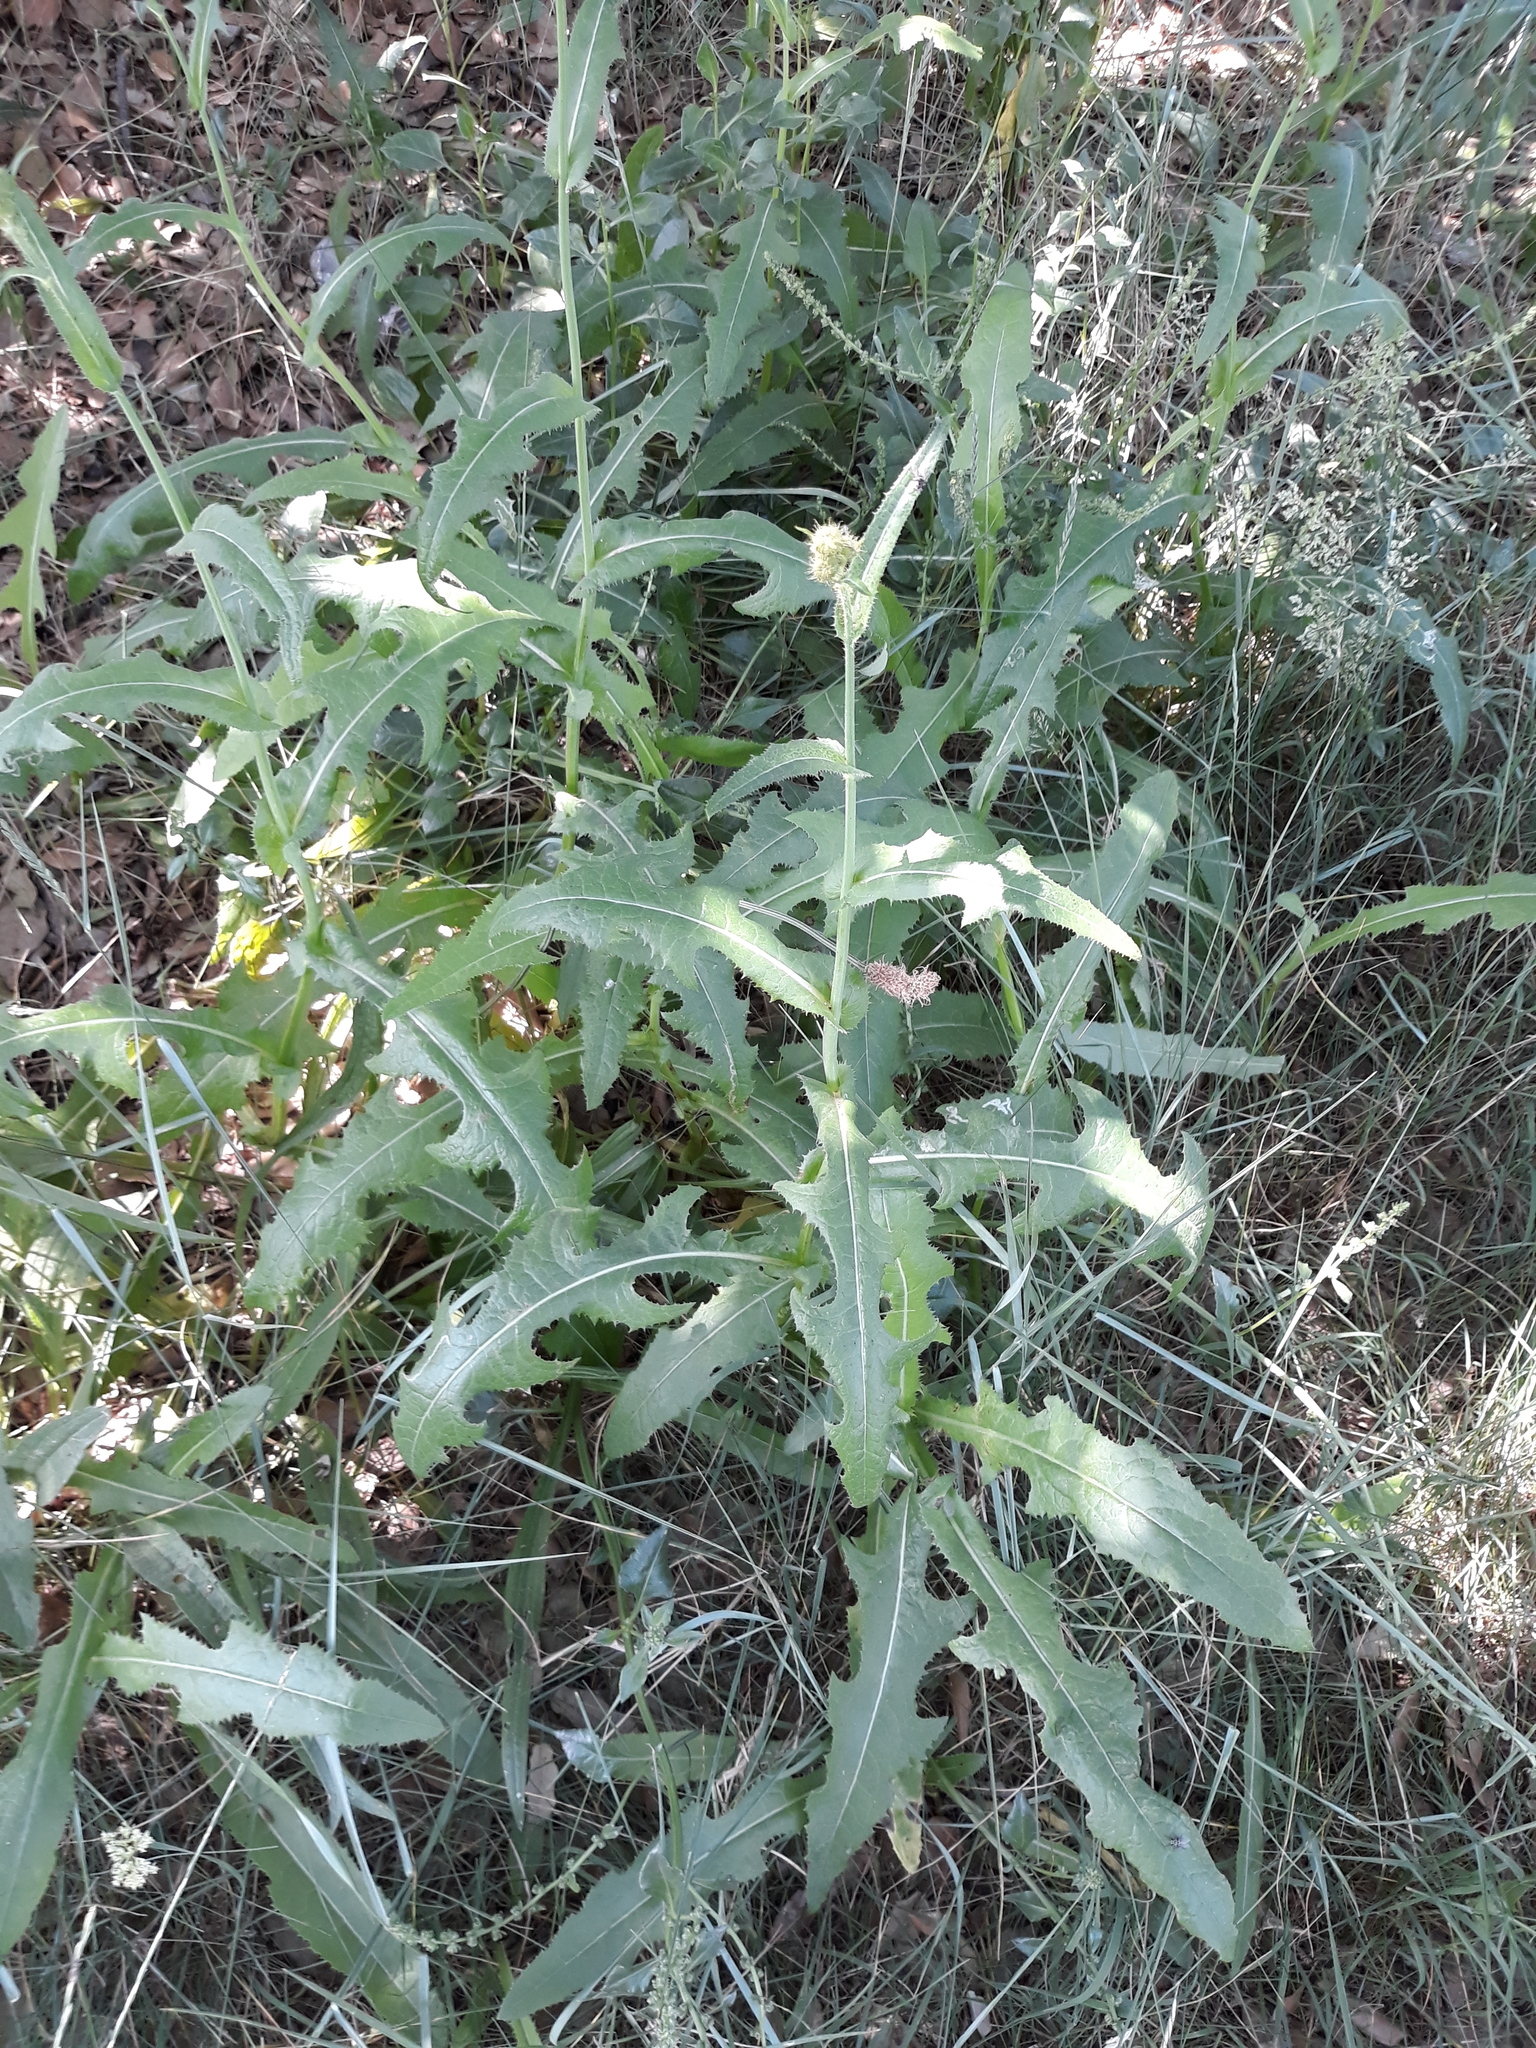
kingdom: Plantae
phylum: Tracheophyta
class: Magnoliopsida
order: Asterales
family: Asteraceae
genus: Sonchus
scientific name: Sonchus arvensis
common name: Perennial sow-thistle
